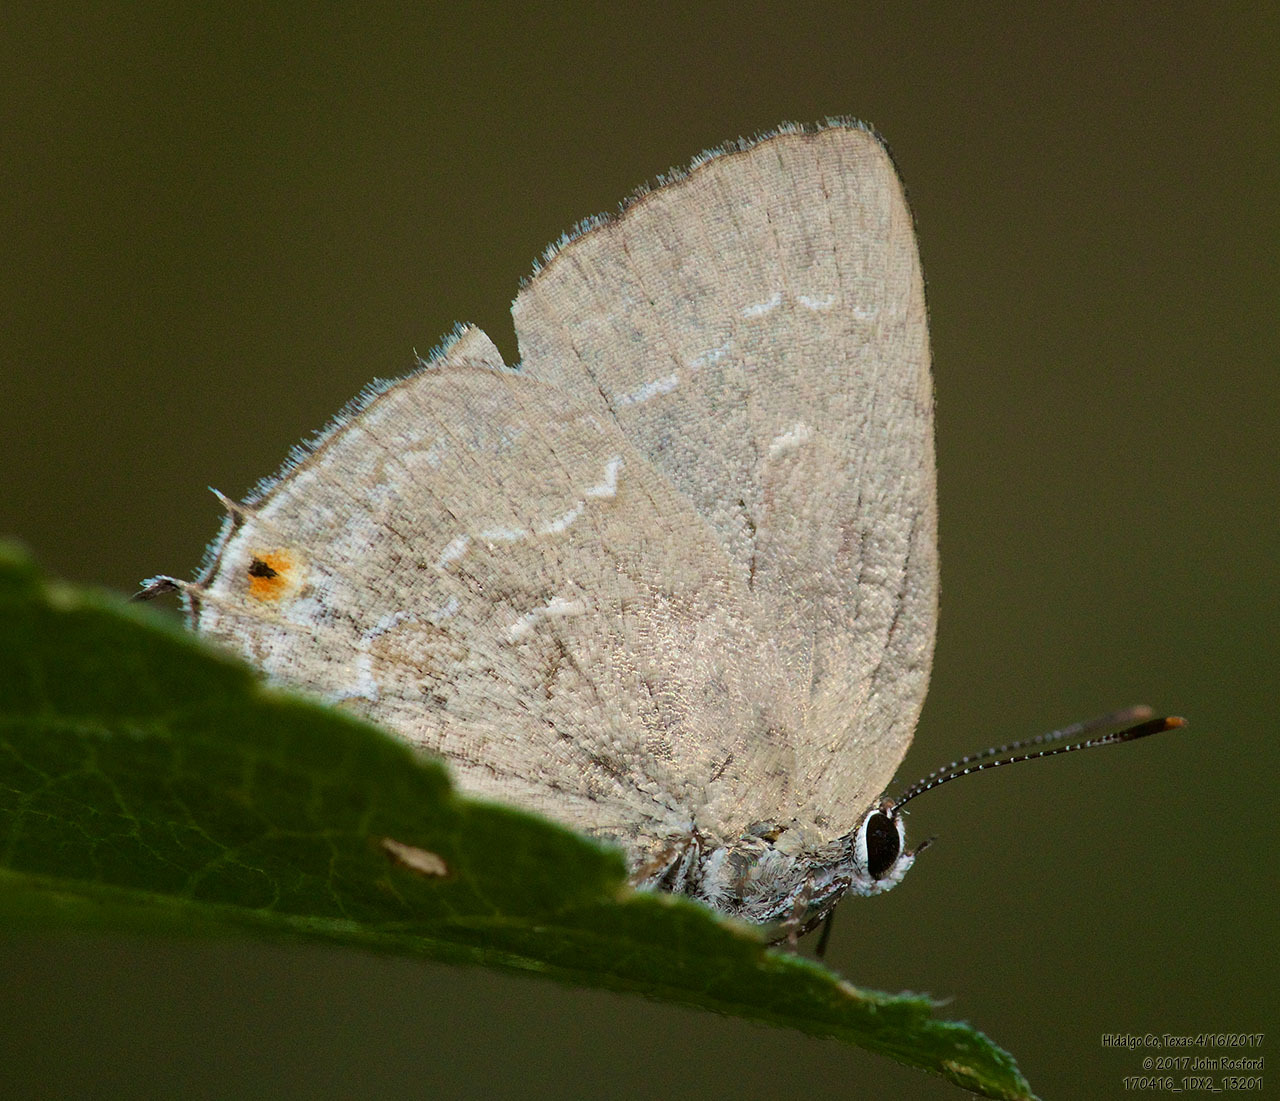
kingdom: Animalia
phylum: Arthropoda
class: Insecta
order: Lepidoptera
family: Lycaenidae
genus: Strephonota
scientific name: Strephonota tephraeus
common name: Pearly-gray hairstreak
